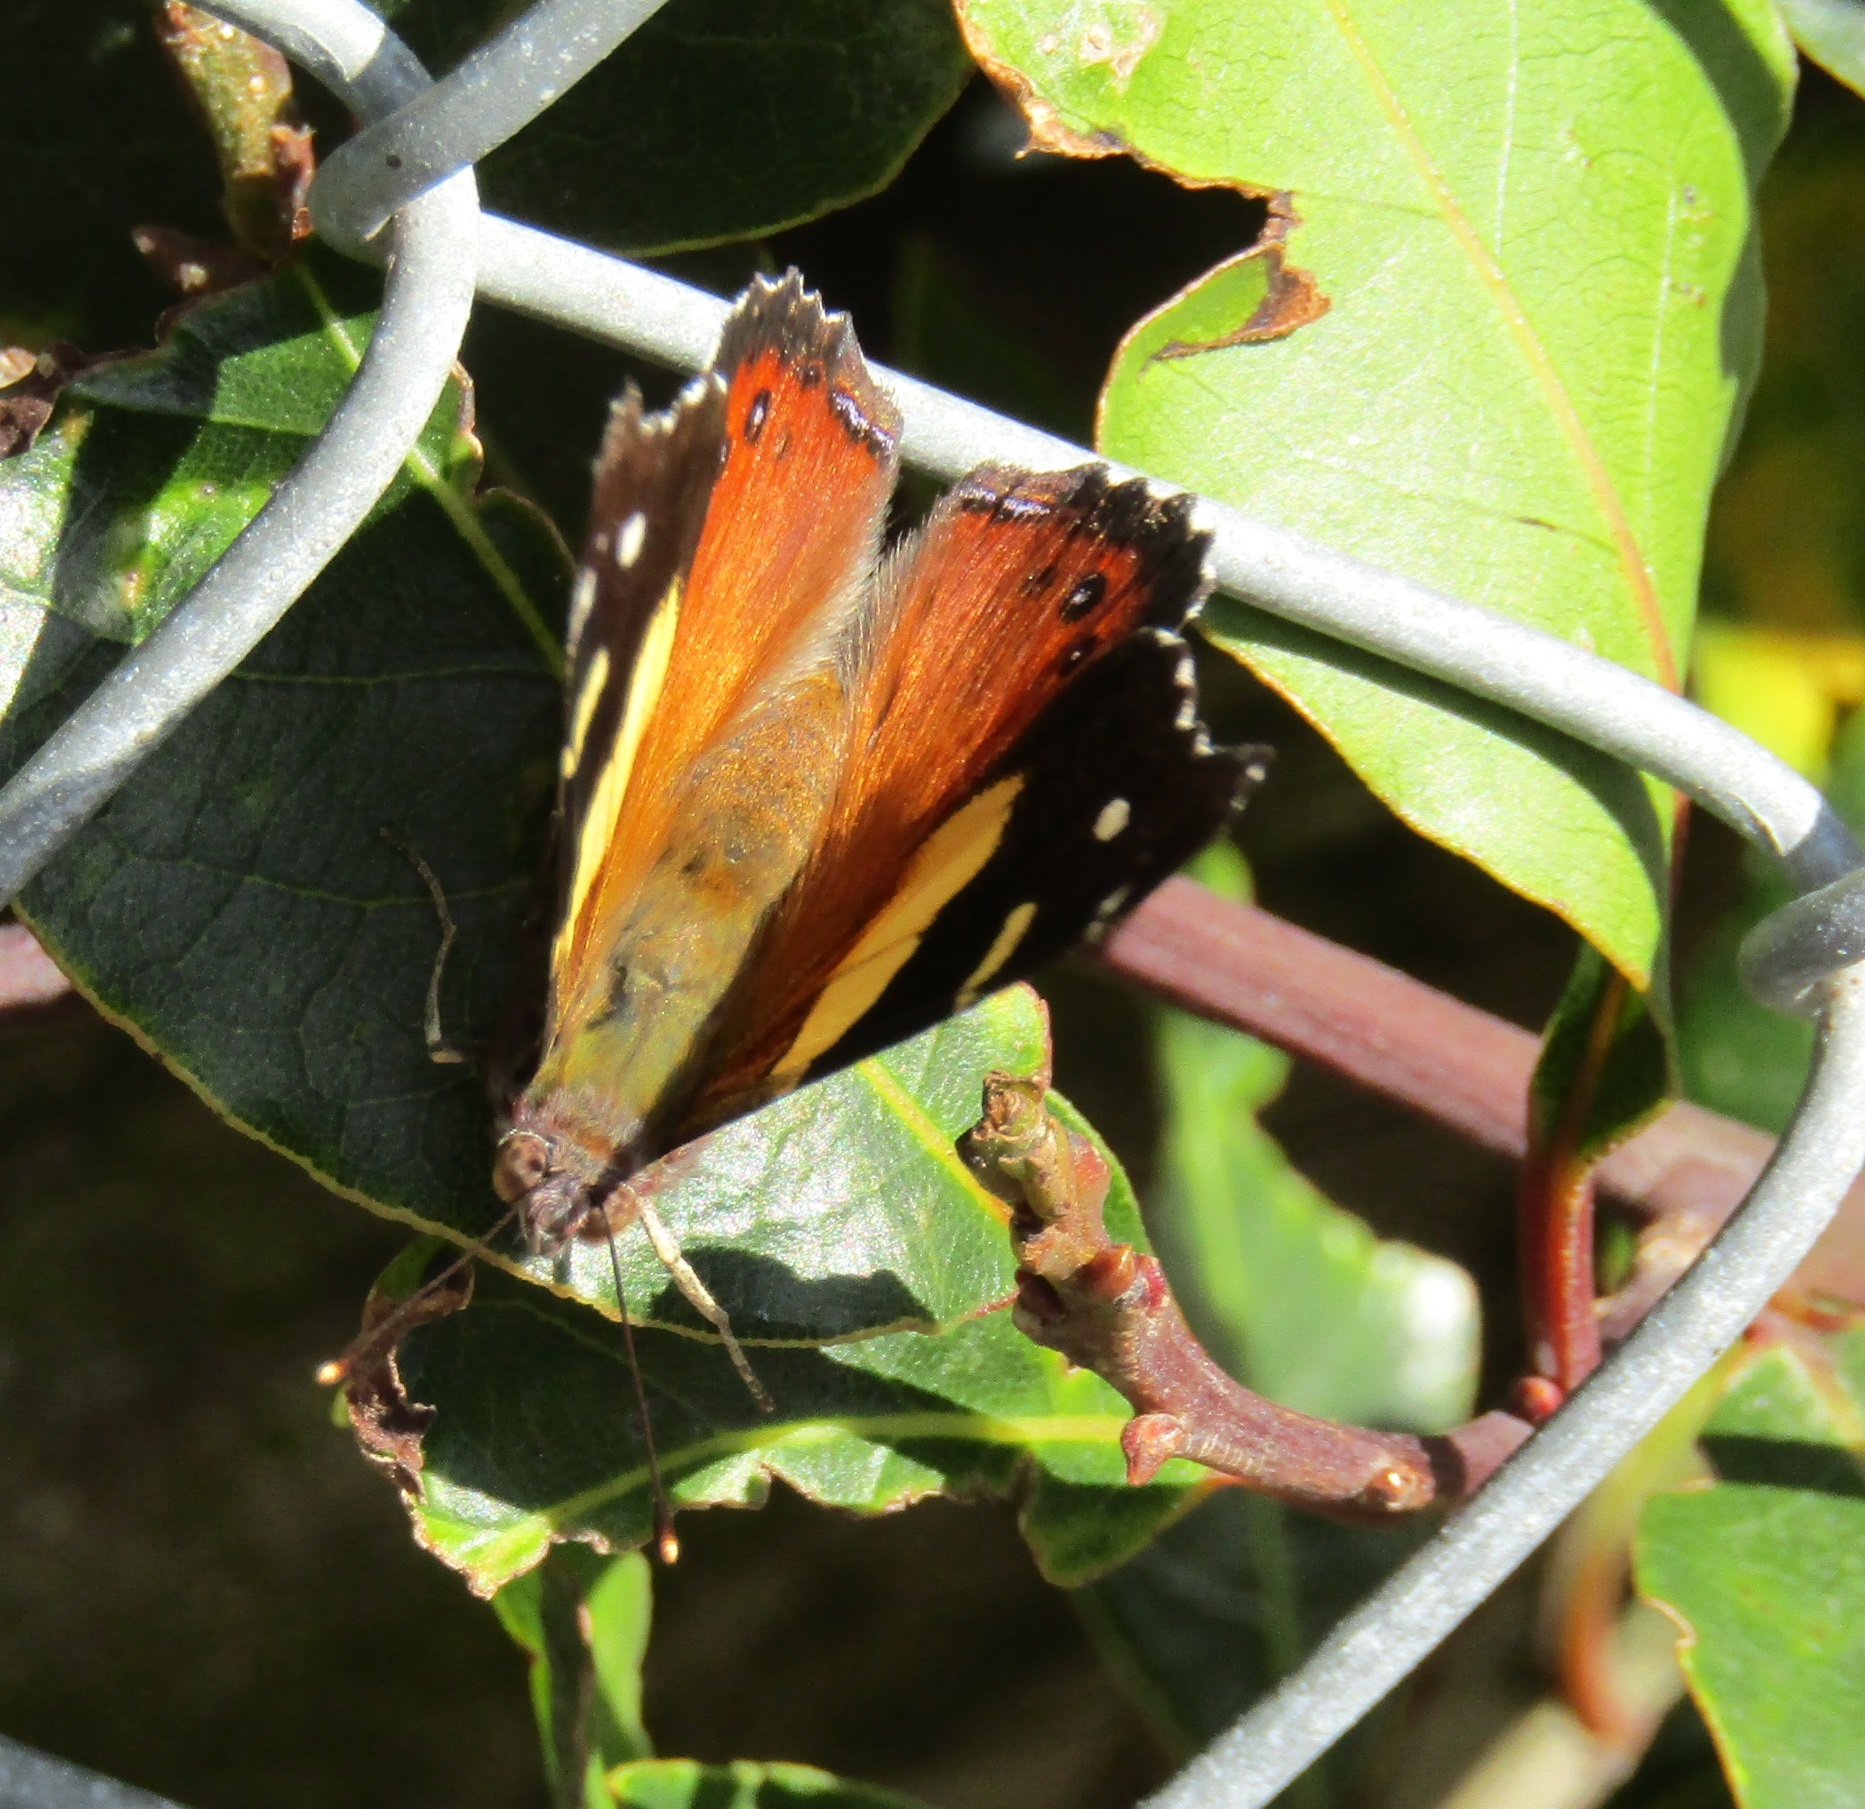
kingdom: Animalia
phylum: Arthropoda
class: Insecta
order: Lepidoptera
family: Nymphalidae
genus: Vanessa
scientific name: Vanessa itea
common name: Yellow admiral
